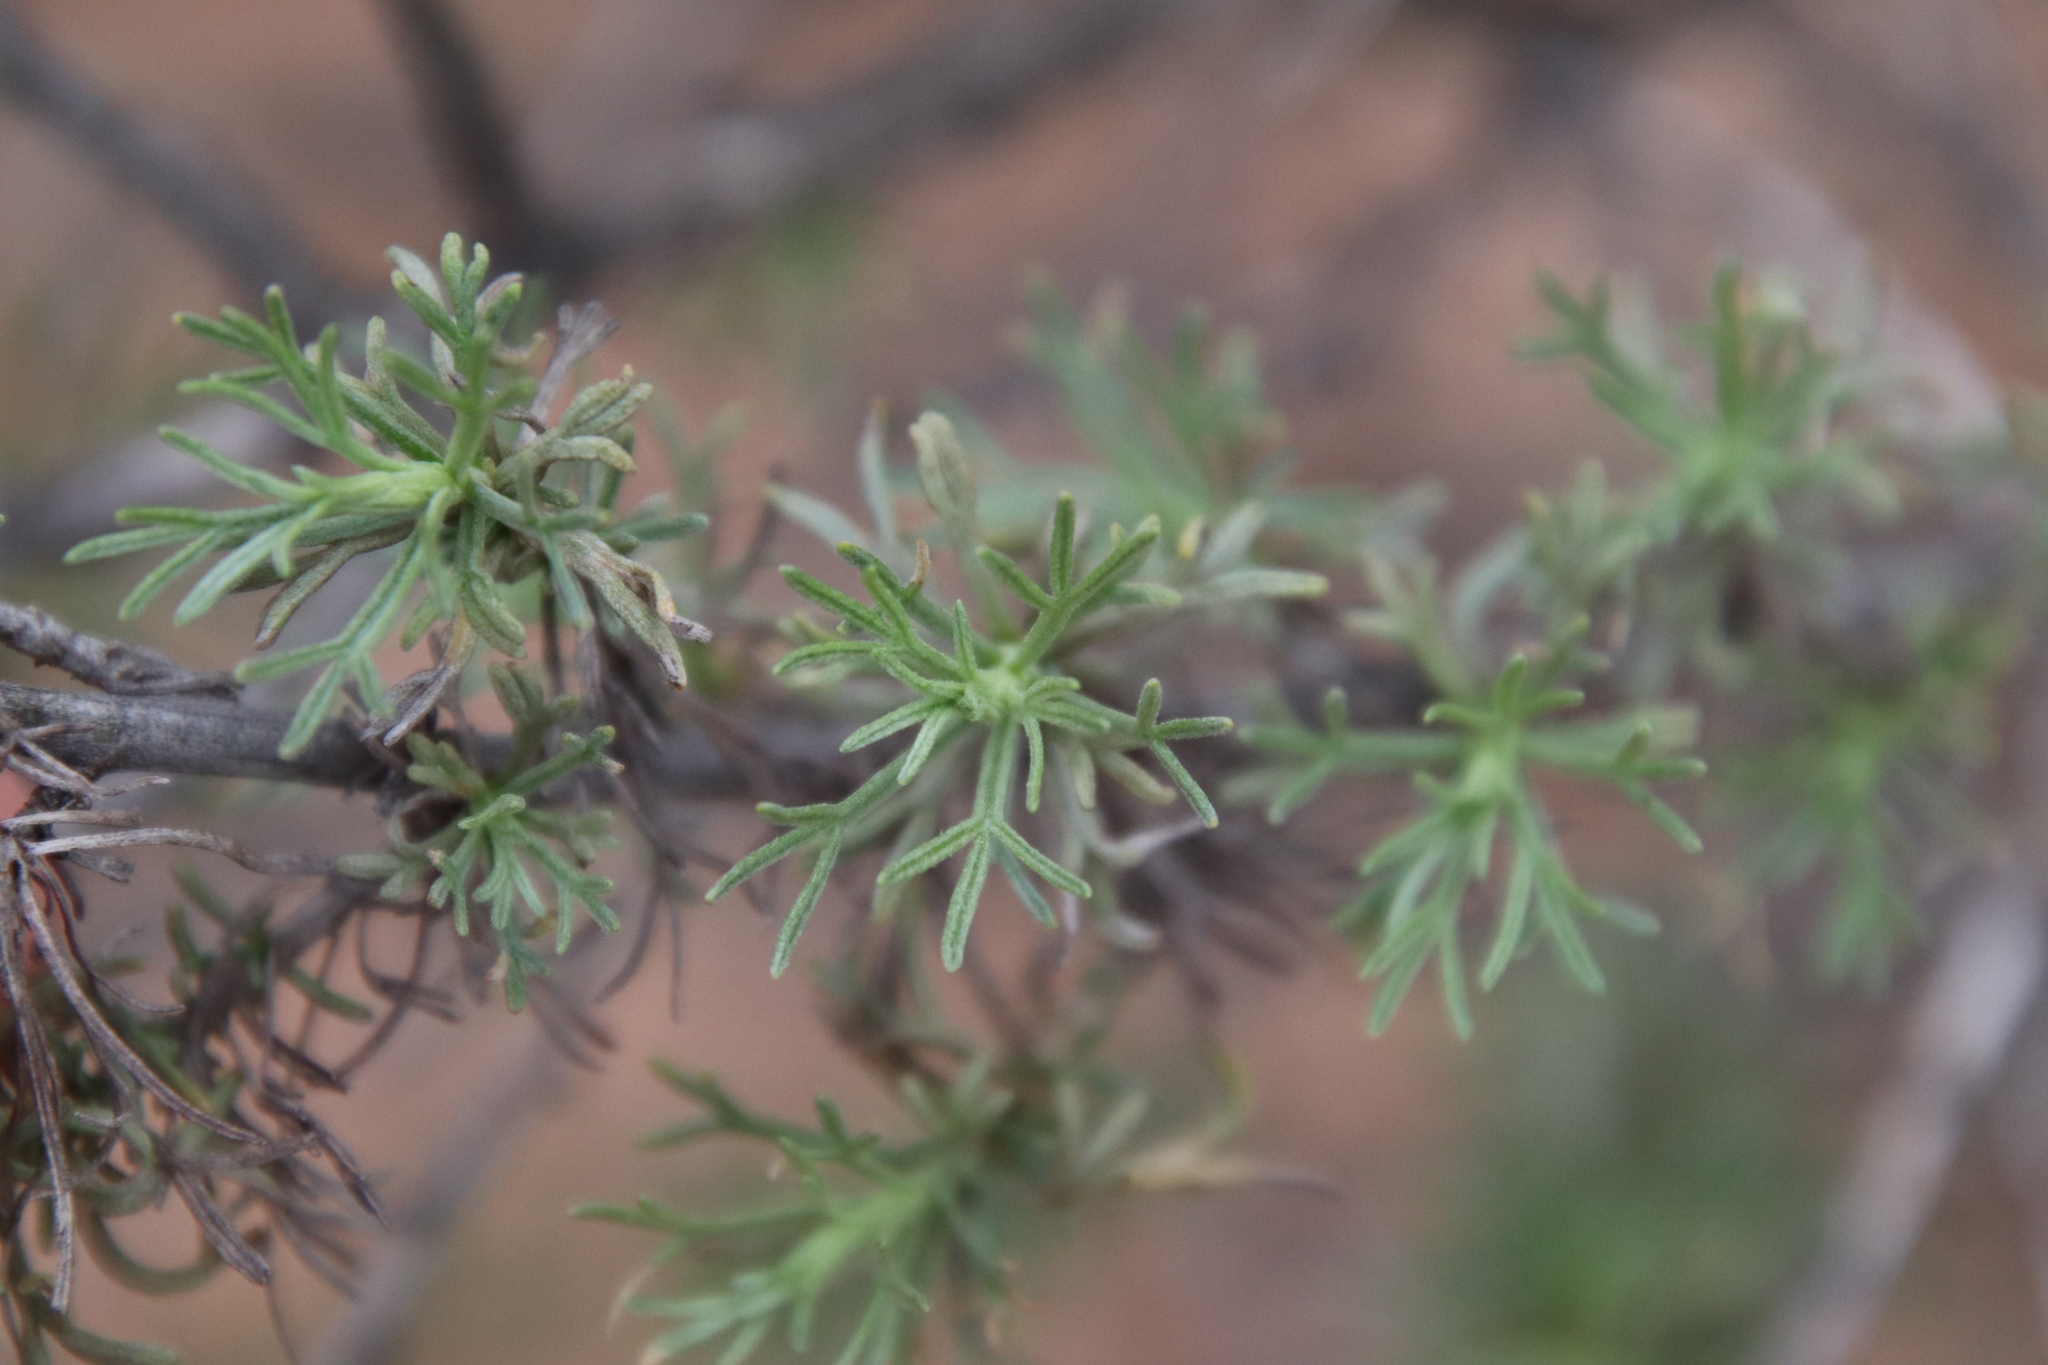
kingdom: Plantae
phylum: Tracheophyta
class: Magnoliopsida
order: Asterales
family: Asteraceae
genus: Artemisia
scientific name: Artemisia californica
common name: California sagebrush
